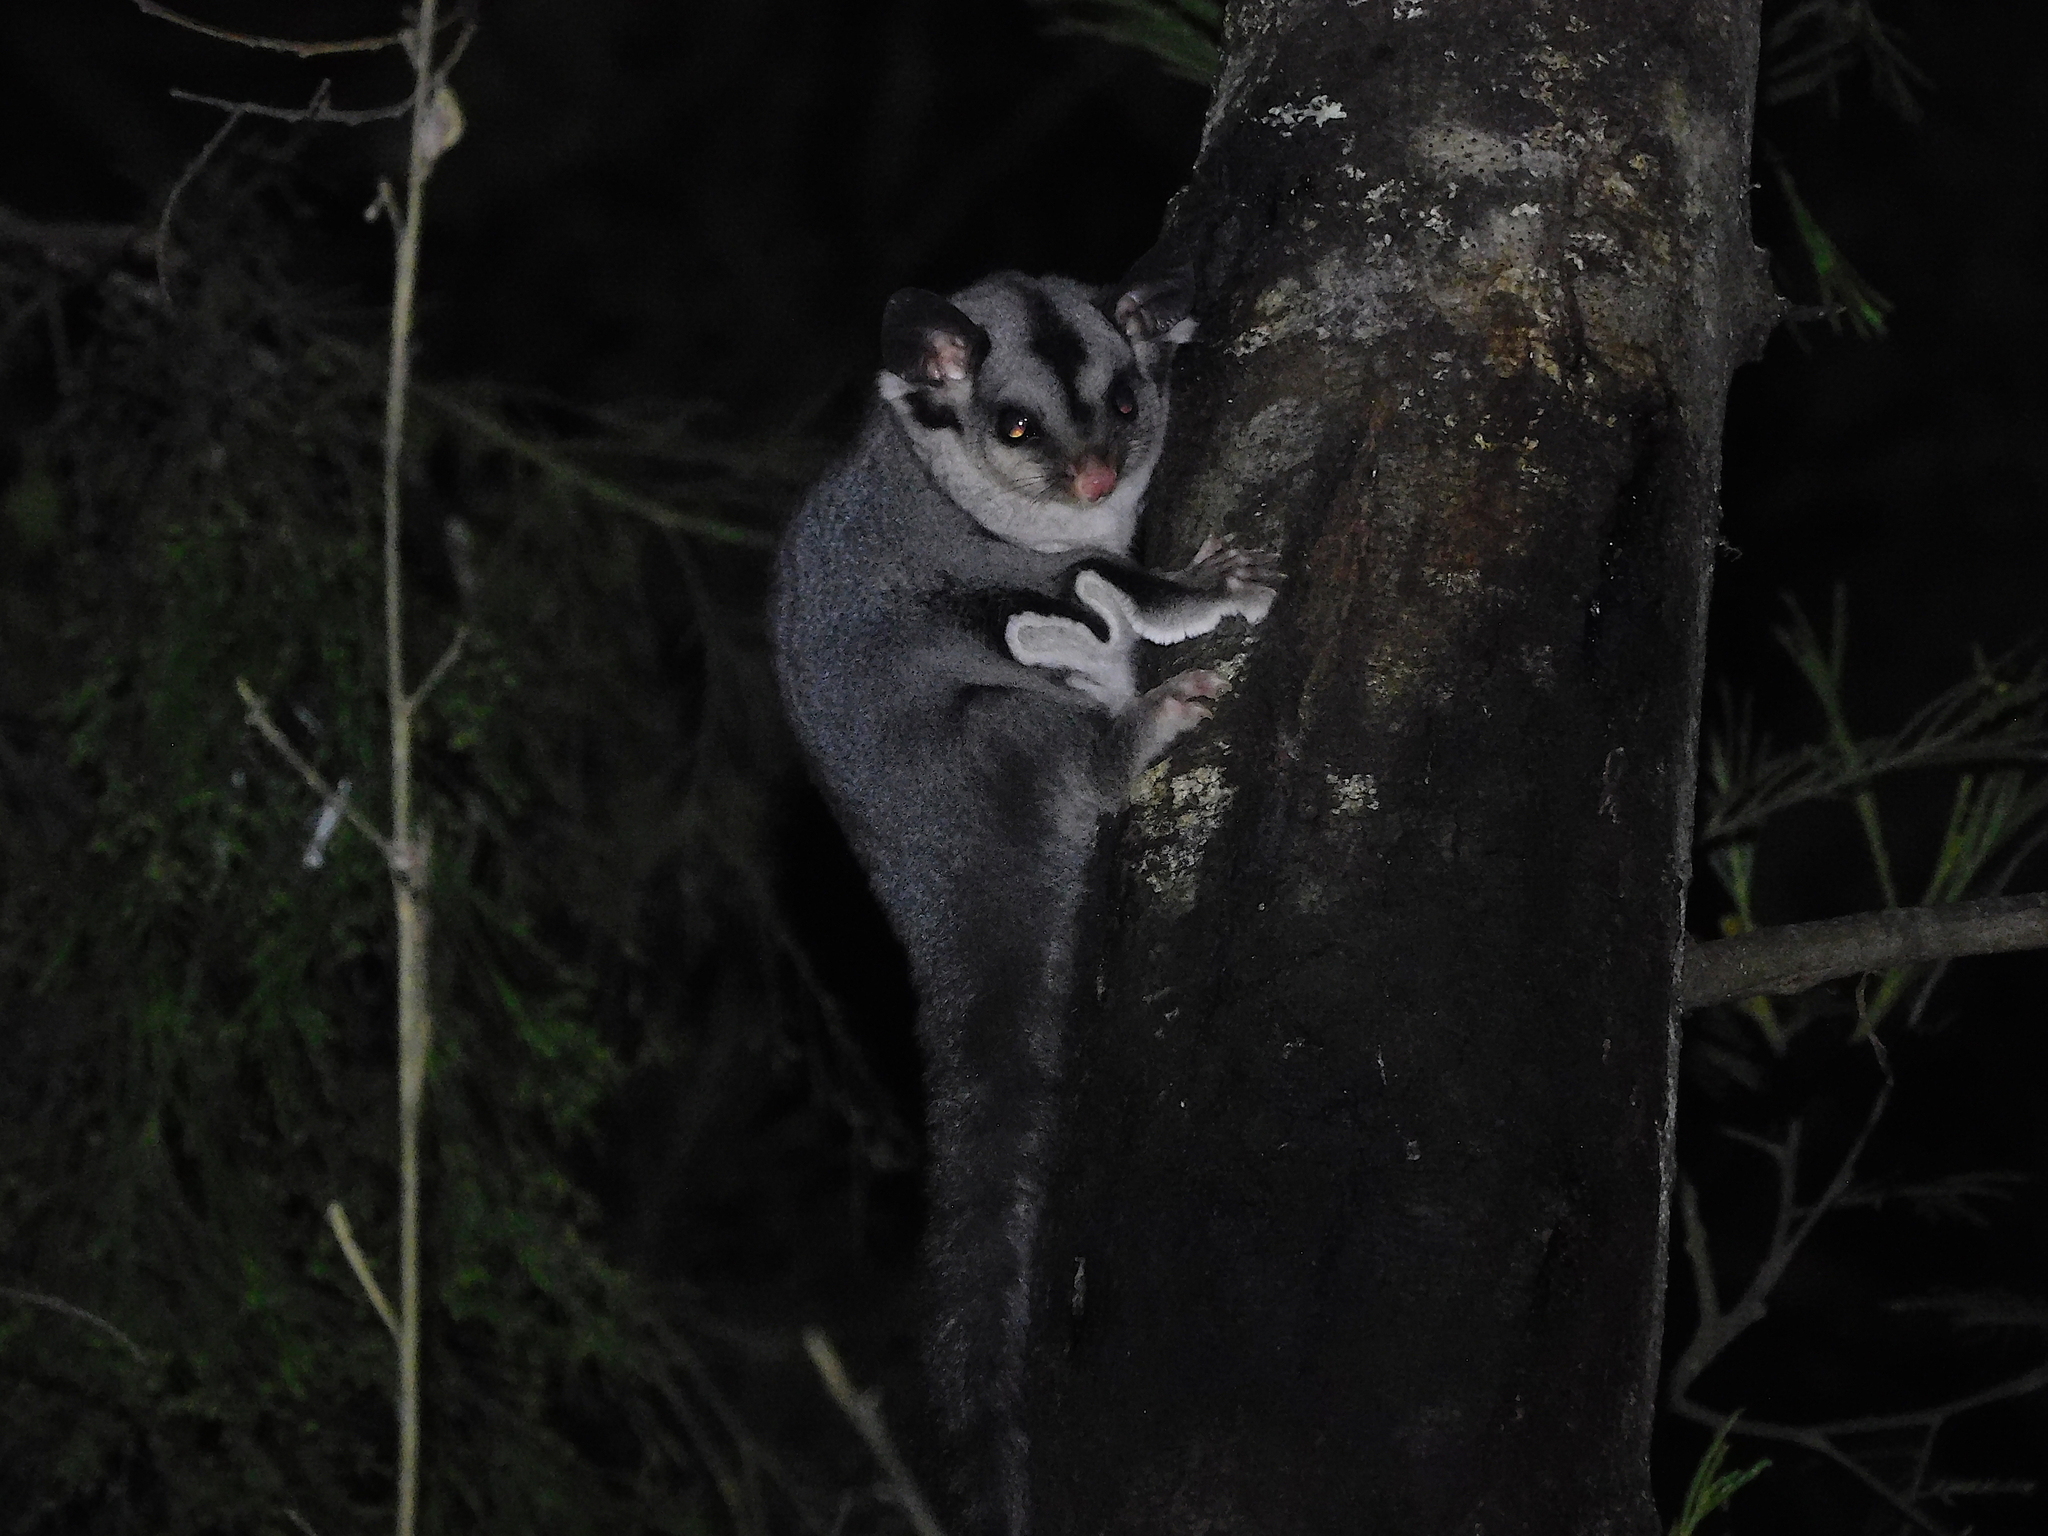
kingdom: Animalia
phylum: Chordata
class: Mammalia
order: Diprotodontia
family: Petauridae
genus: Petaurus
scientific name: Petaurus breviceps
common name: Sugar glider
